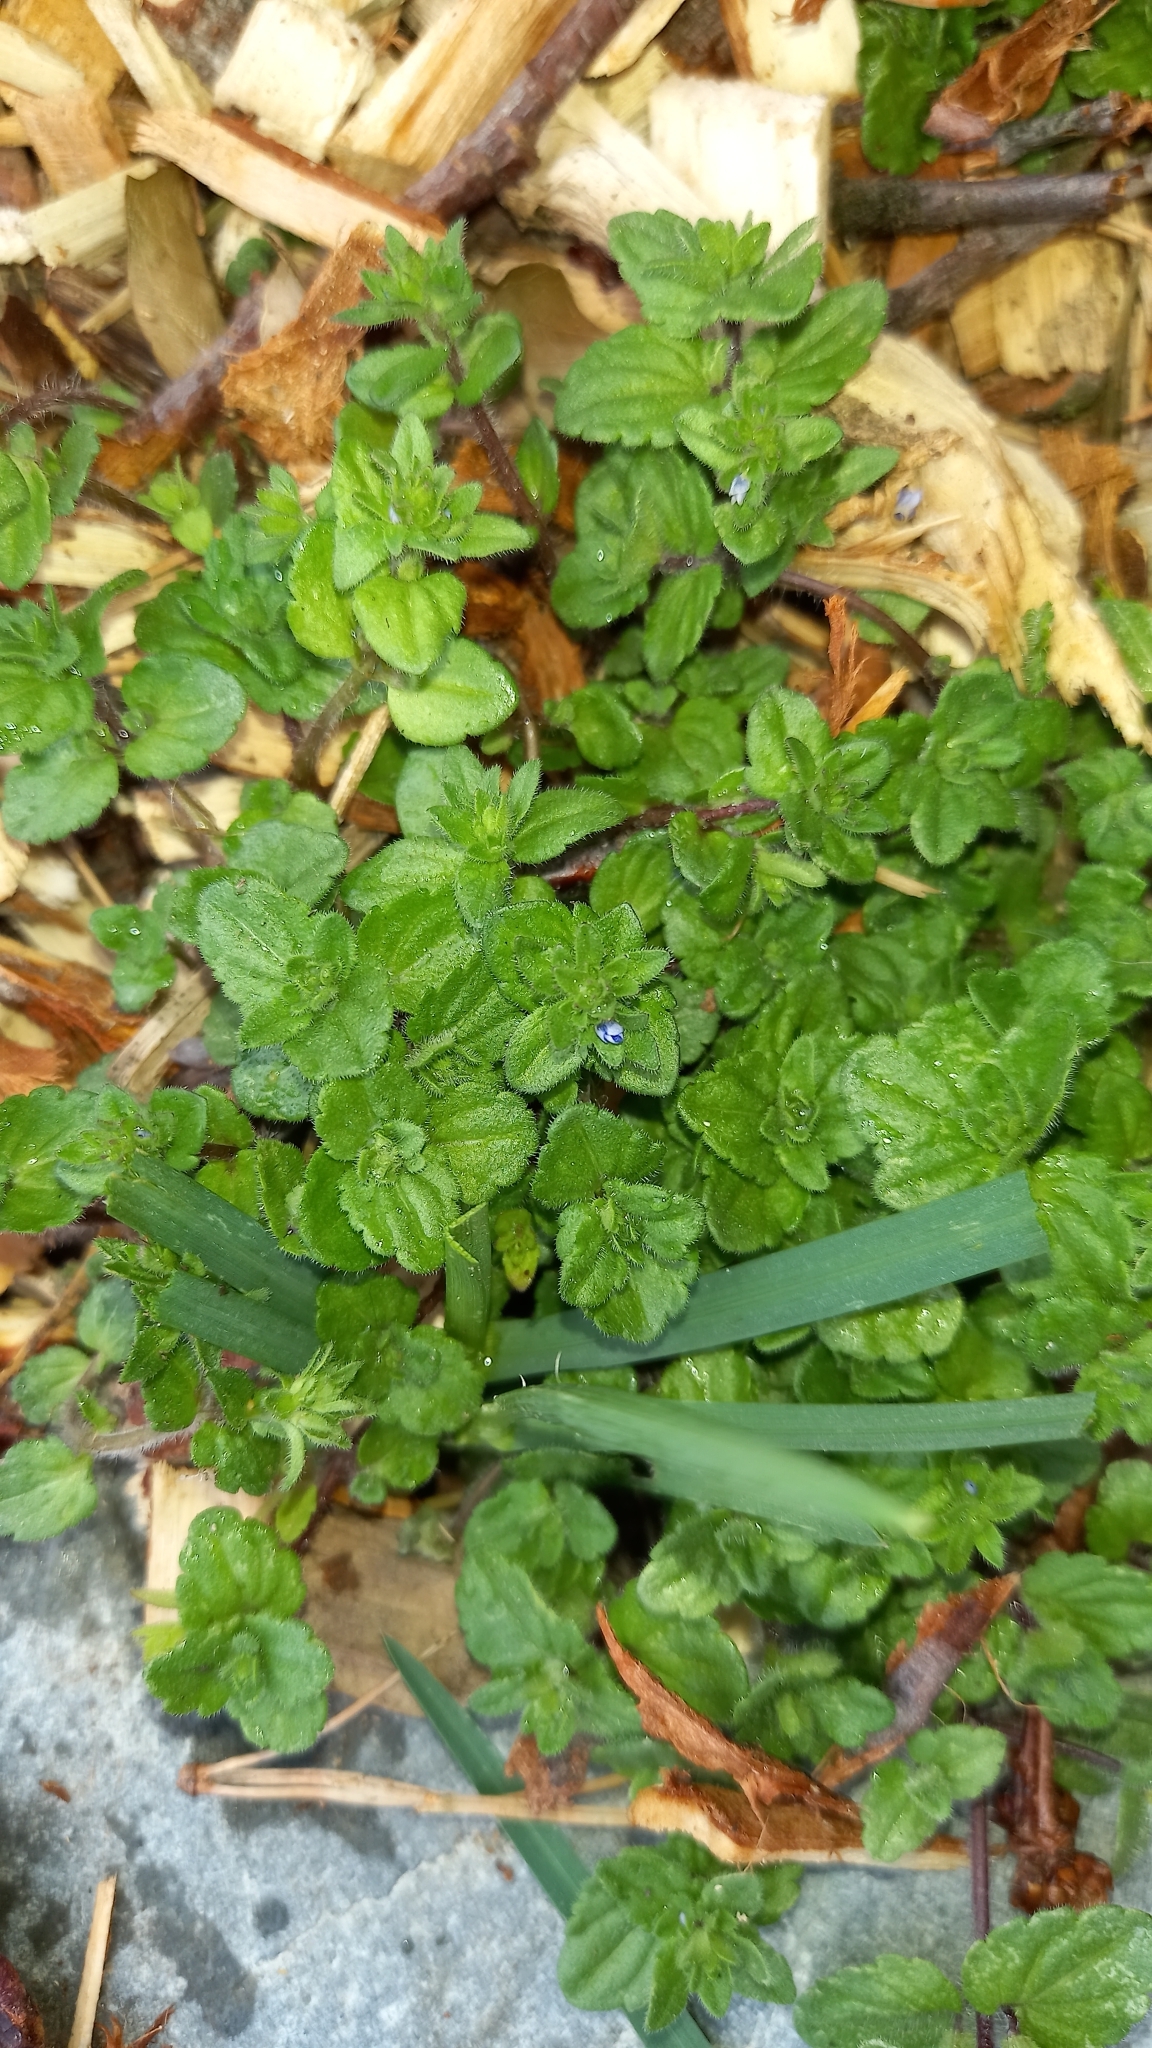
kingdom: Plantae
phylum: Tracheophyta
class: Magnoliopsida
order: Lamiales
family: Plantaginaceae
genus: Veronica
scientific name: Veronica arvensis
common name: Corn speedwell
